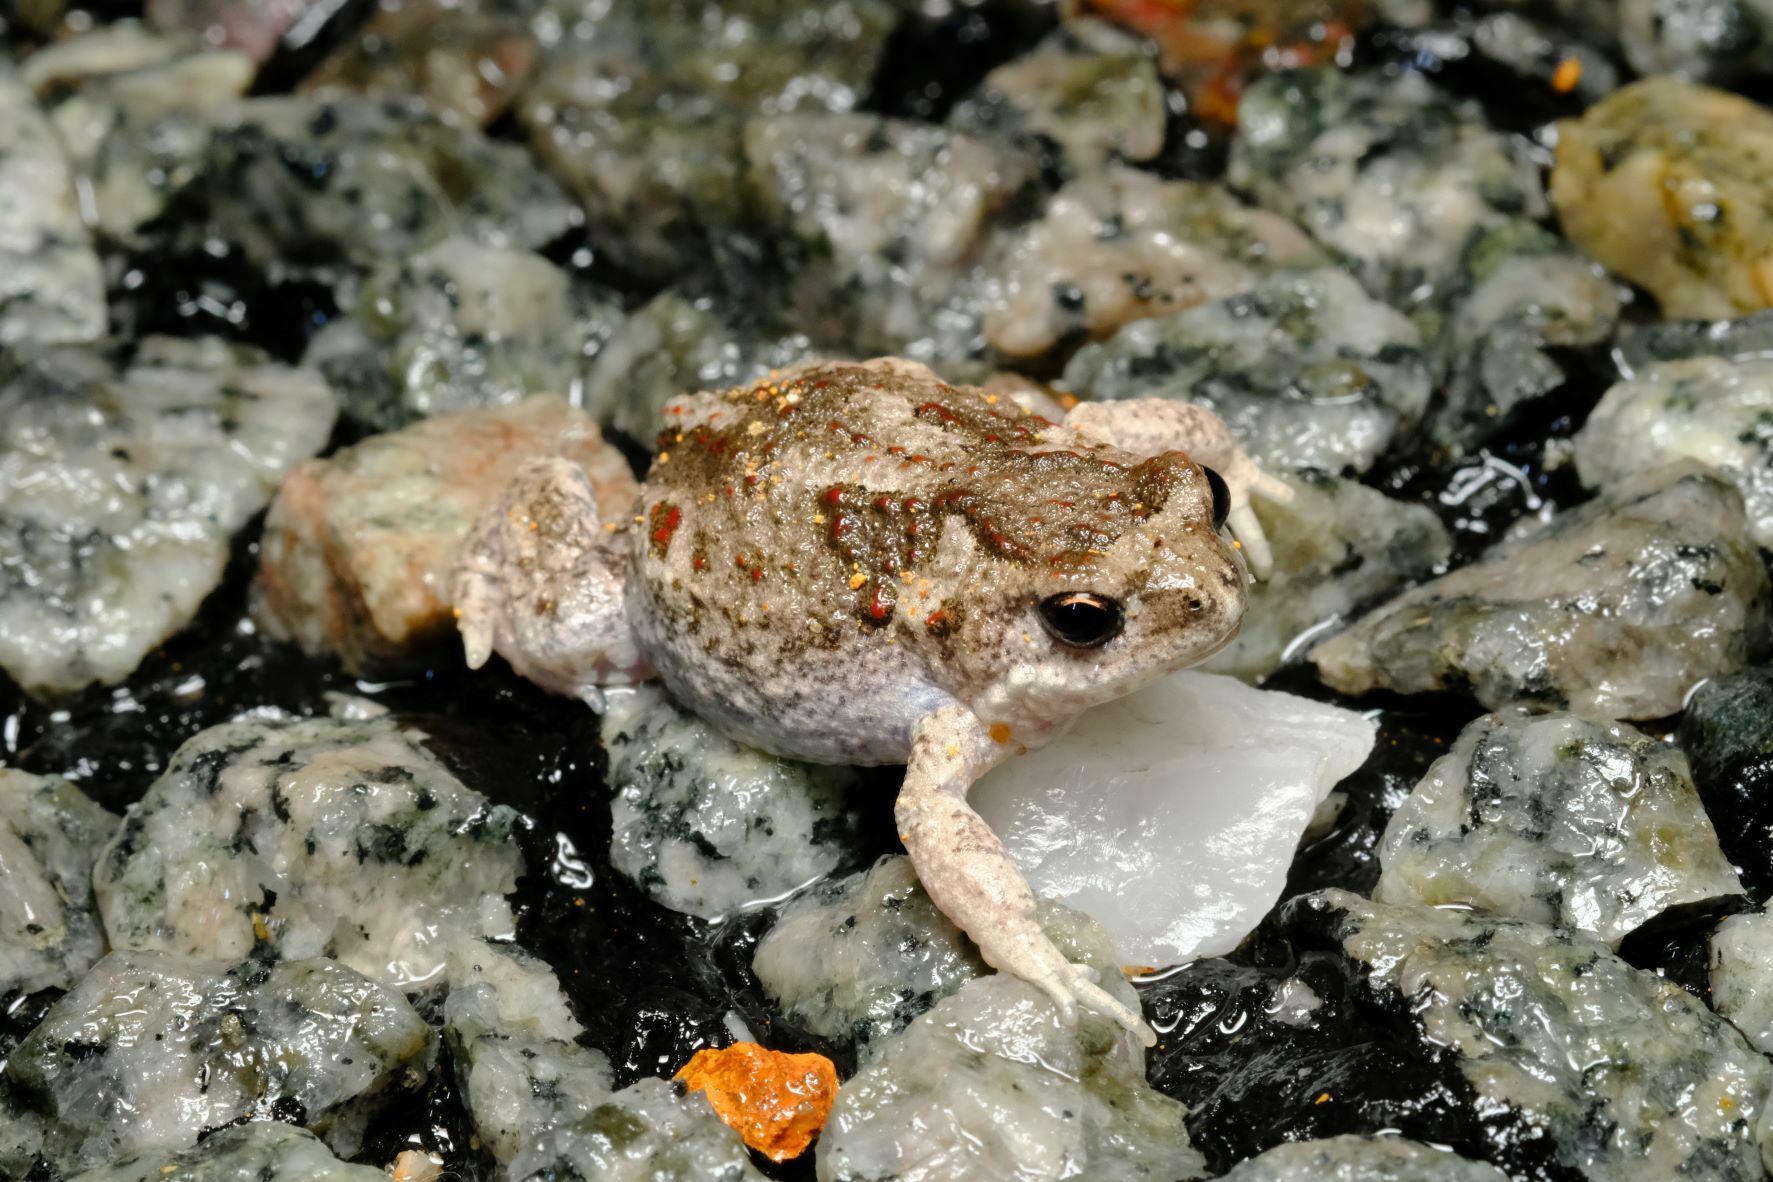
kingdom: Animalia
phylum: Chordata
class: Amphibia
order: Anura
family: Myobatrachidae
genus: Pseudophryne
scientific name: Pseudophryne guentheri
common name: Günther’s toadlet
